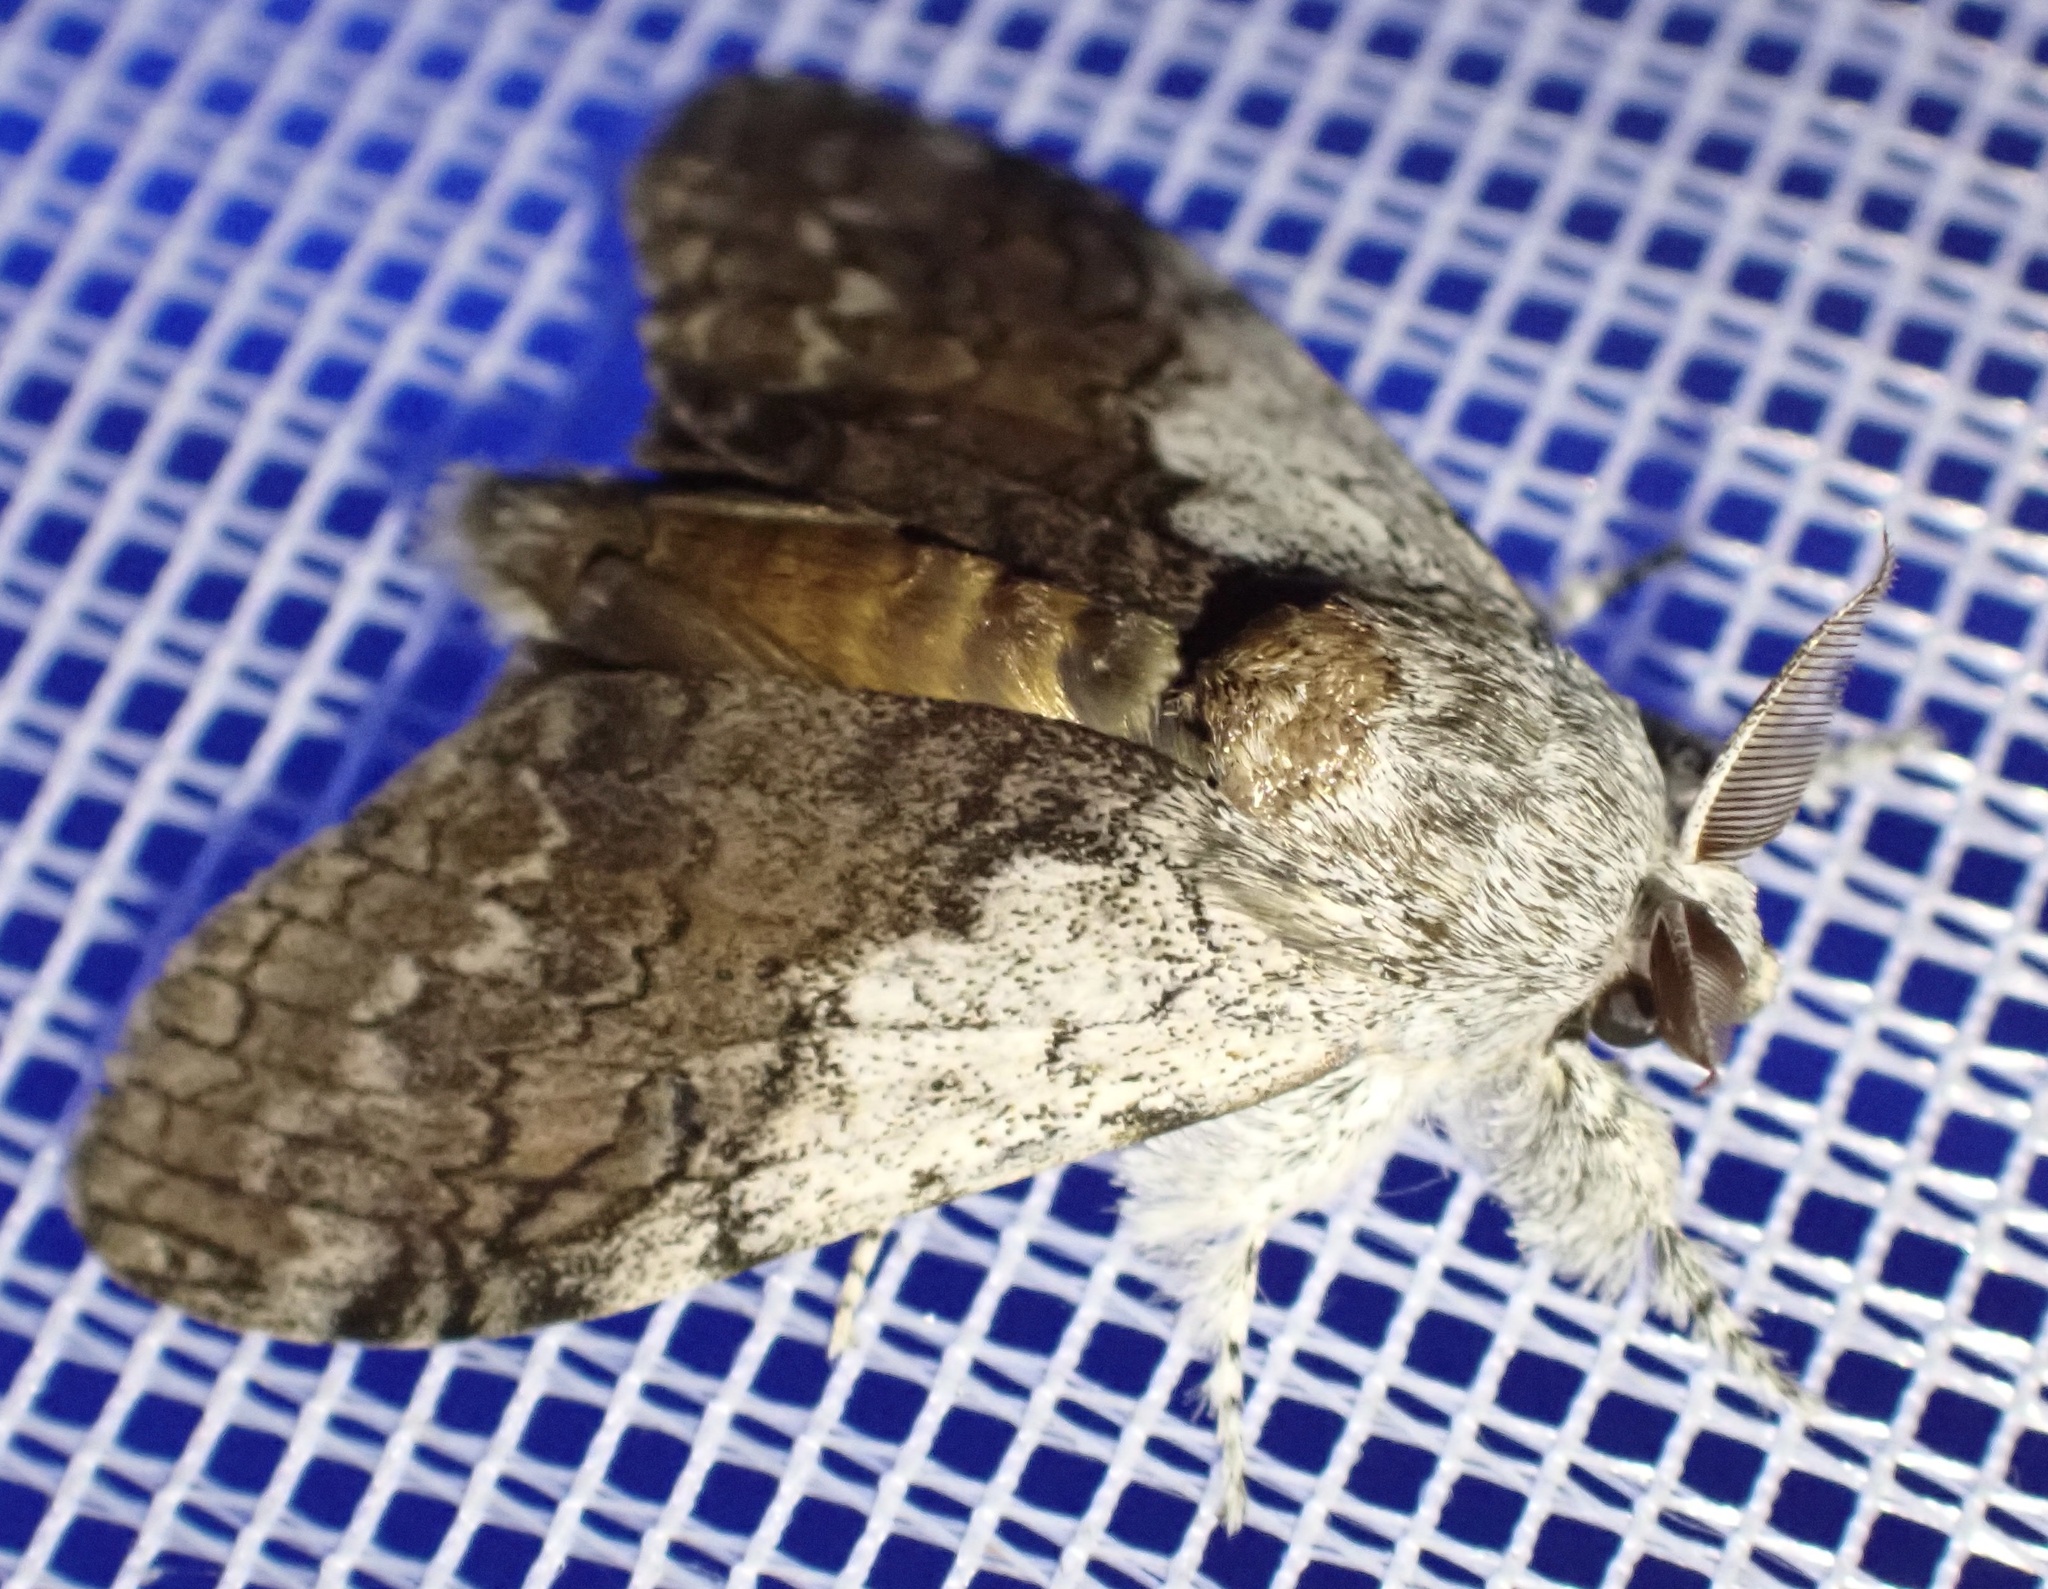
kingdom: Animalia
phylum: Arthropoda
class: Insecta
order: Lepidoptera
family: Erebidae
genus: Calliteara
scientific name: Calliteara
